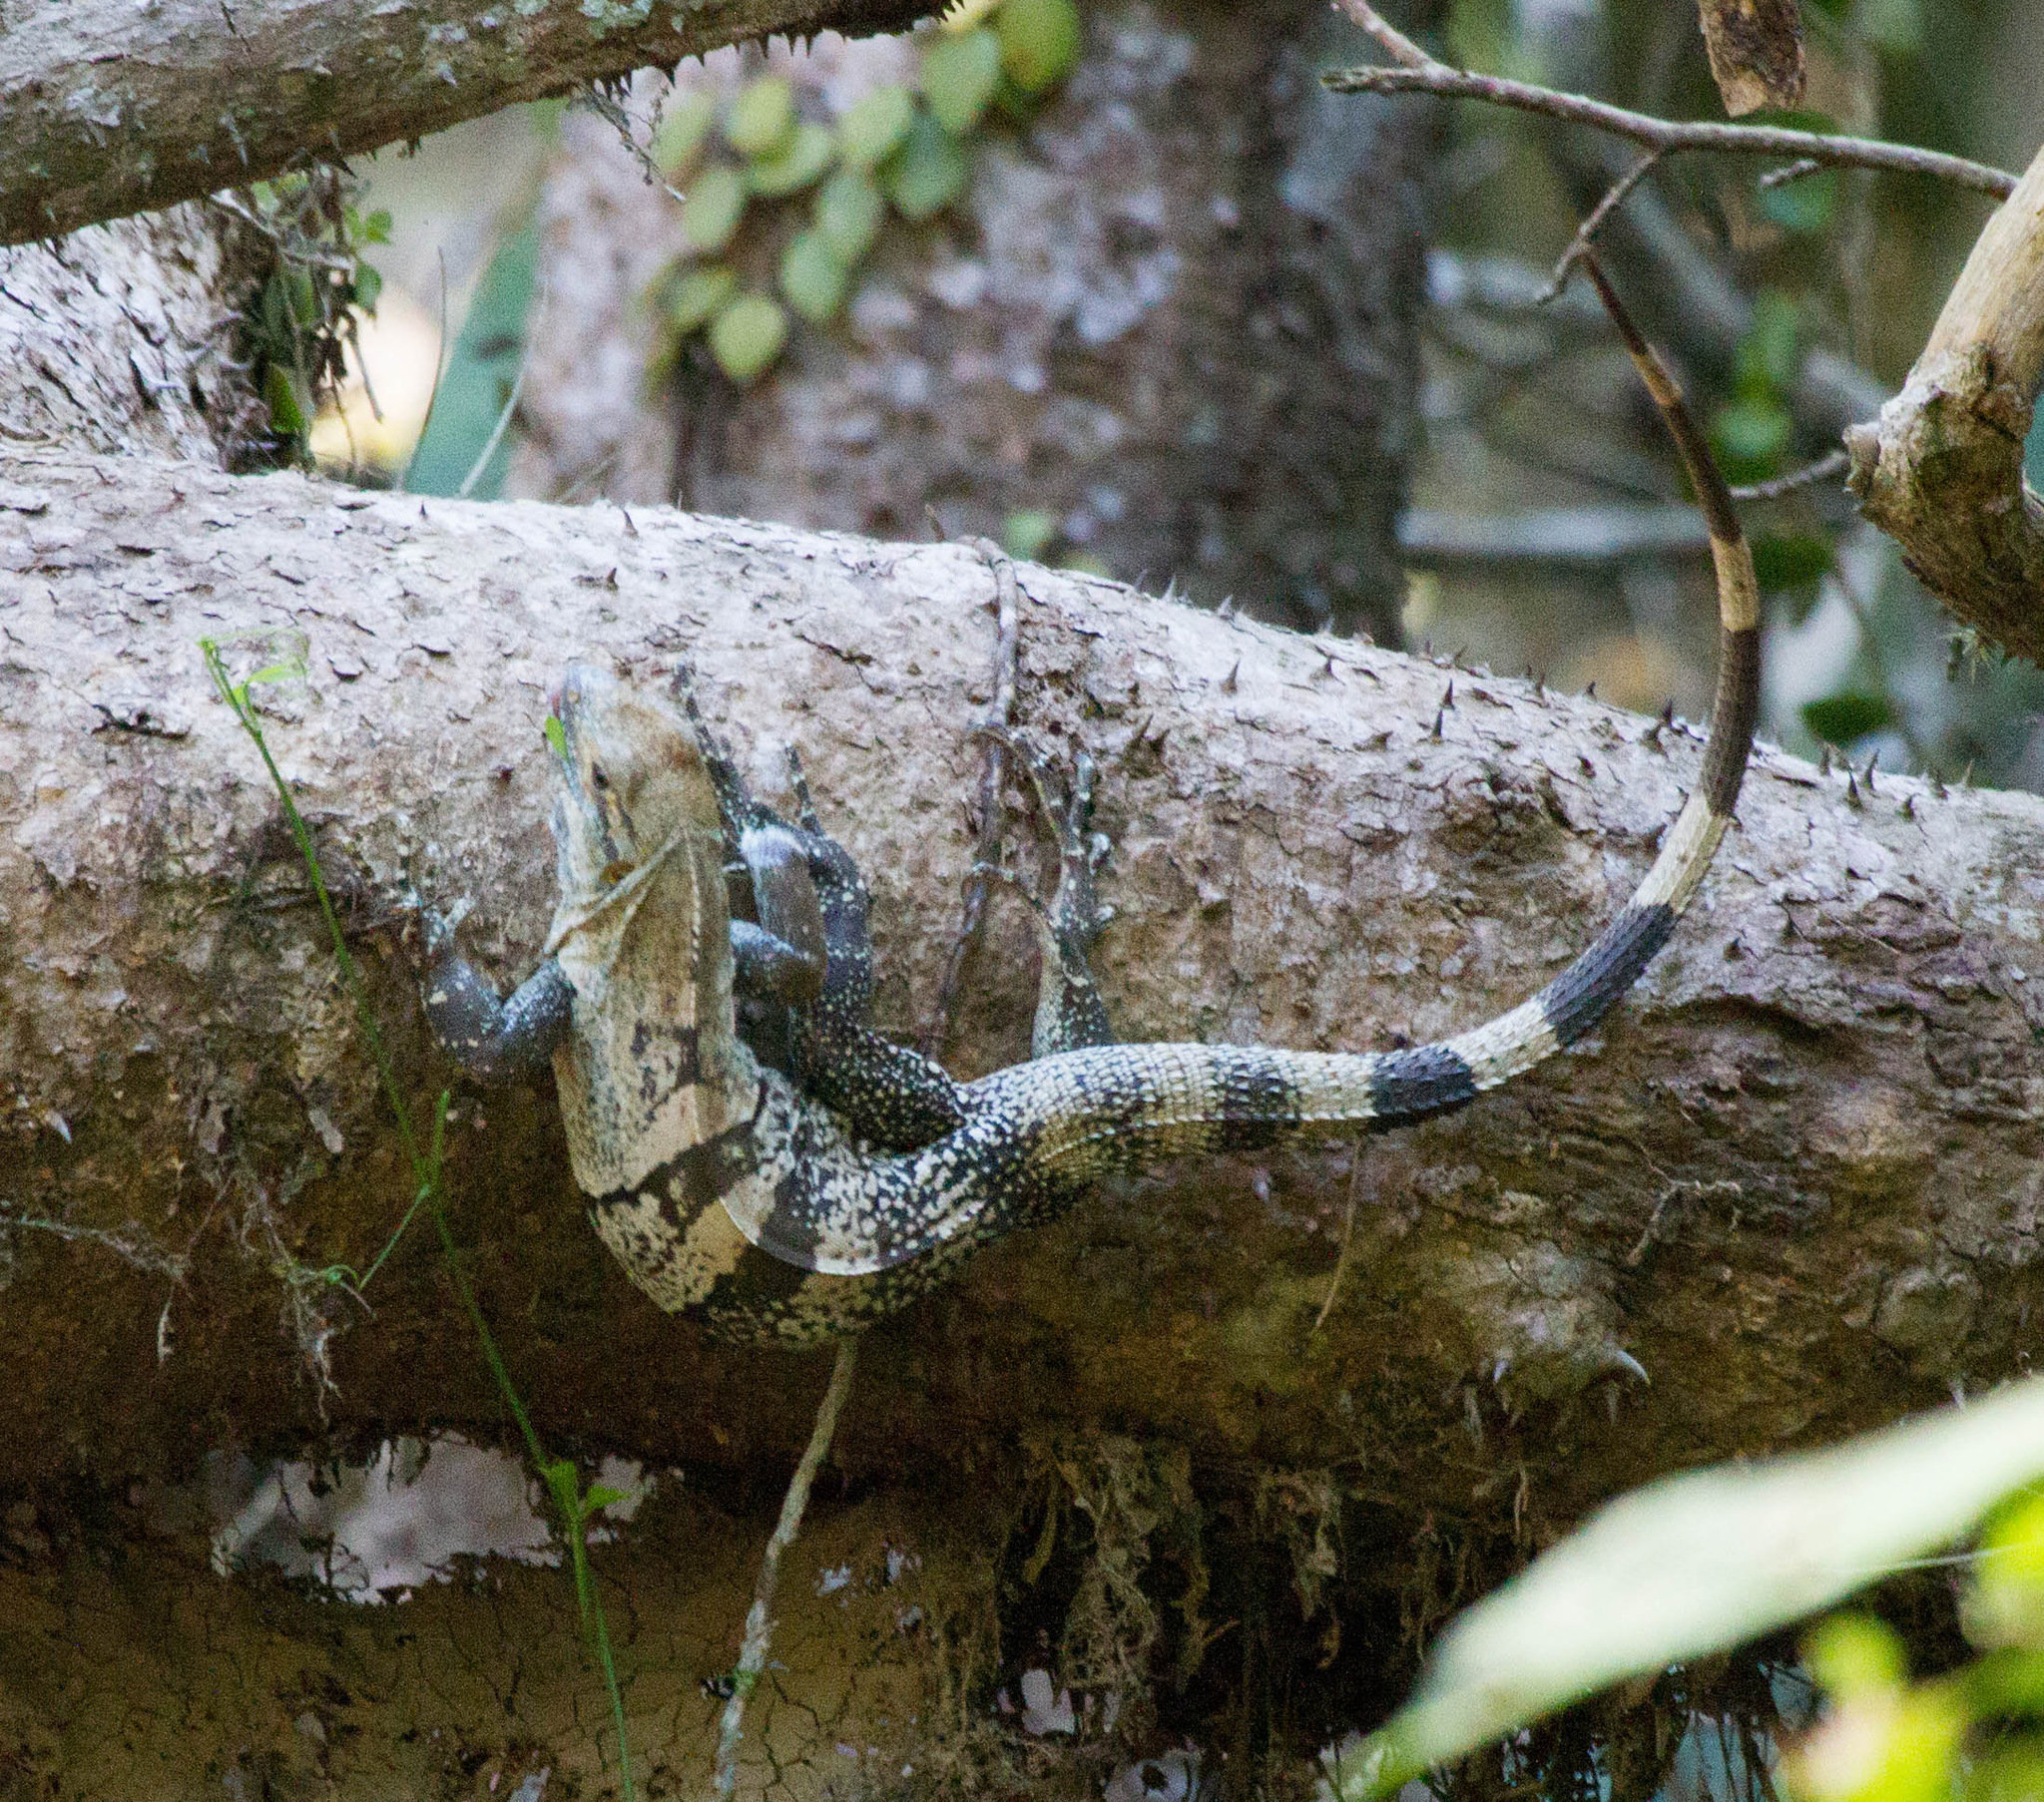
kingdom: Animalia
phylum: Chordata
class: Squamata
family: Iguanidae
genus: Ctenosaura
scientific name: Ctenosaura similis
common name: Black spiny-tailed iguana
